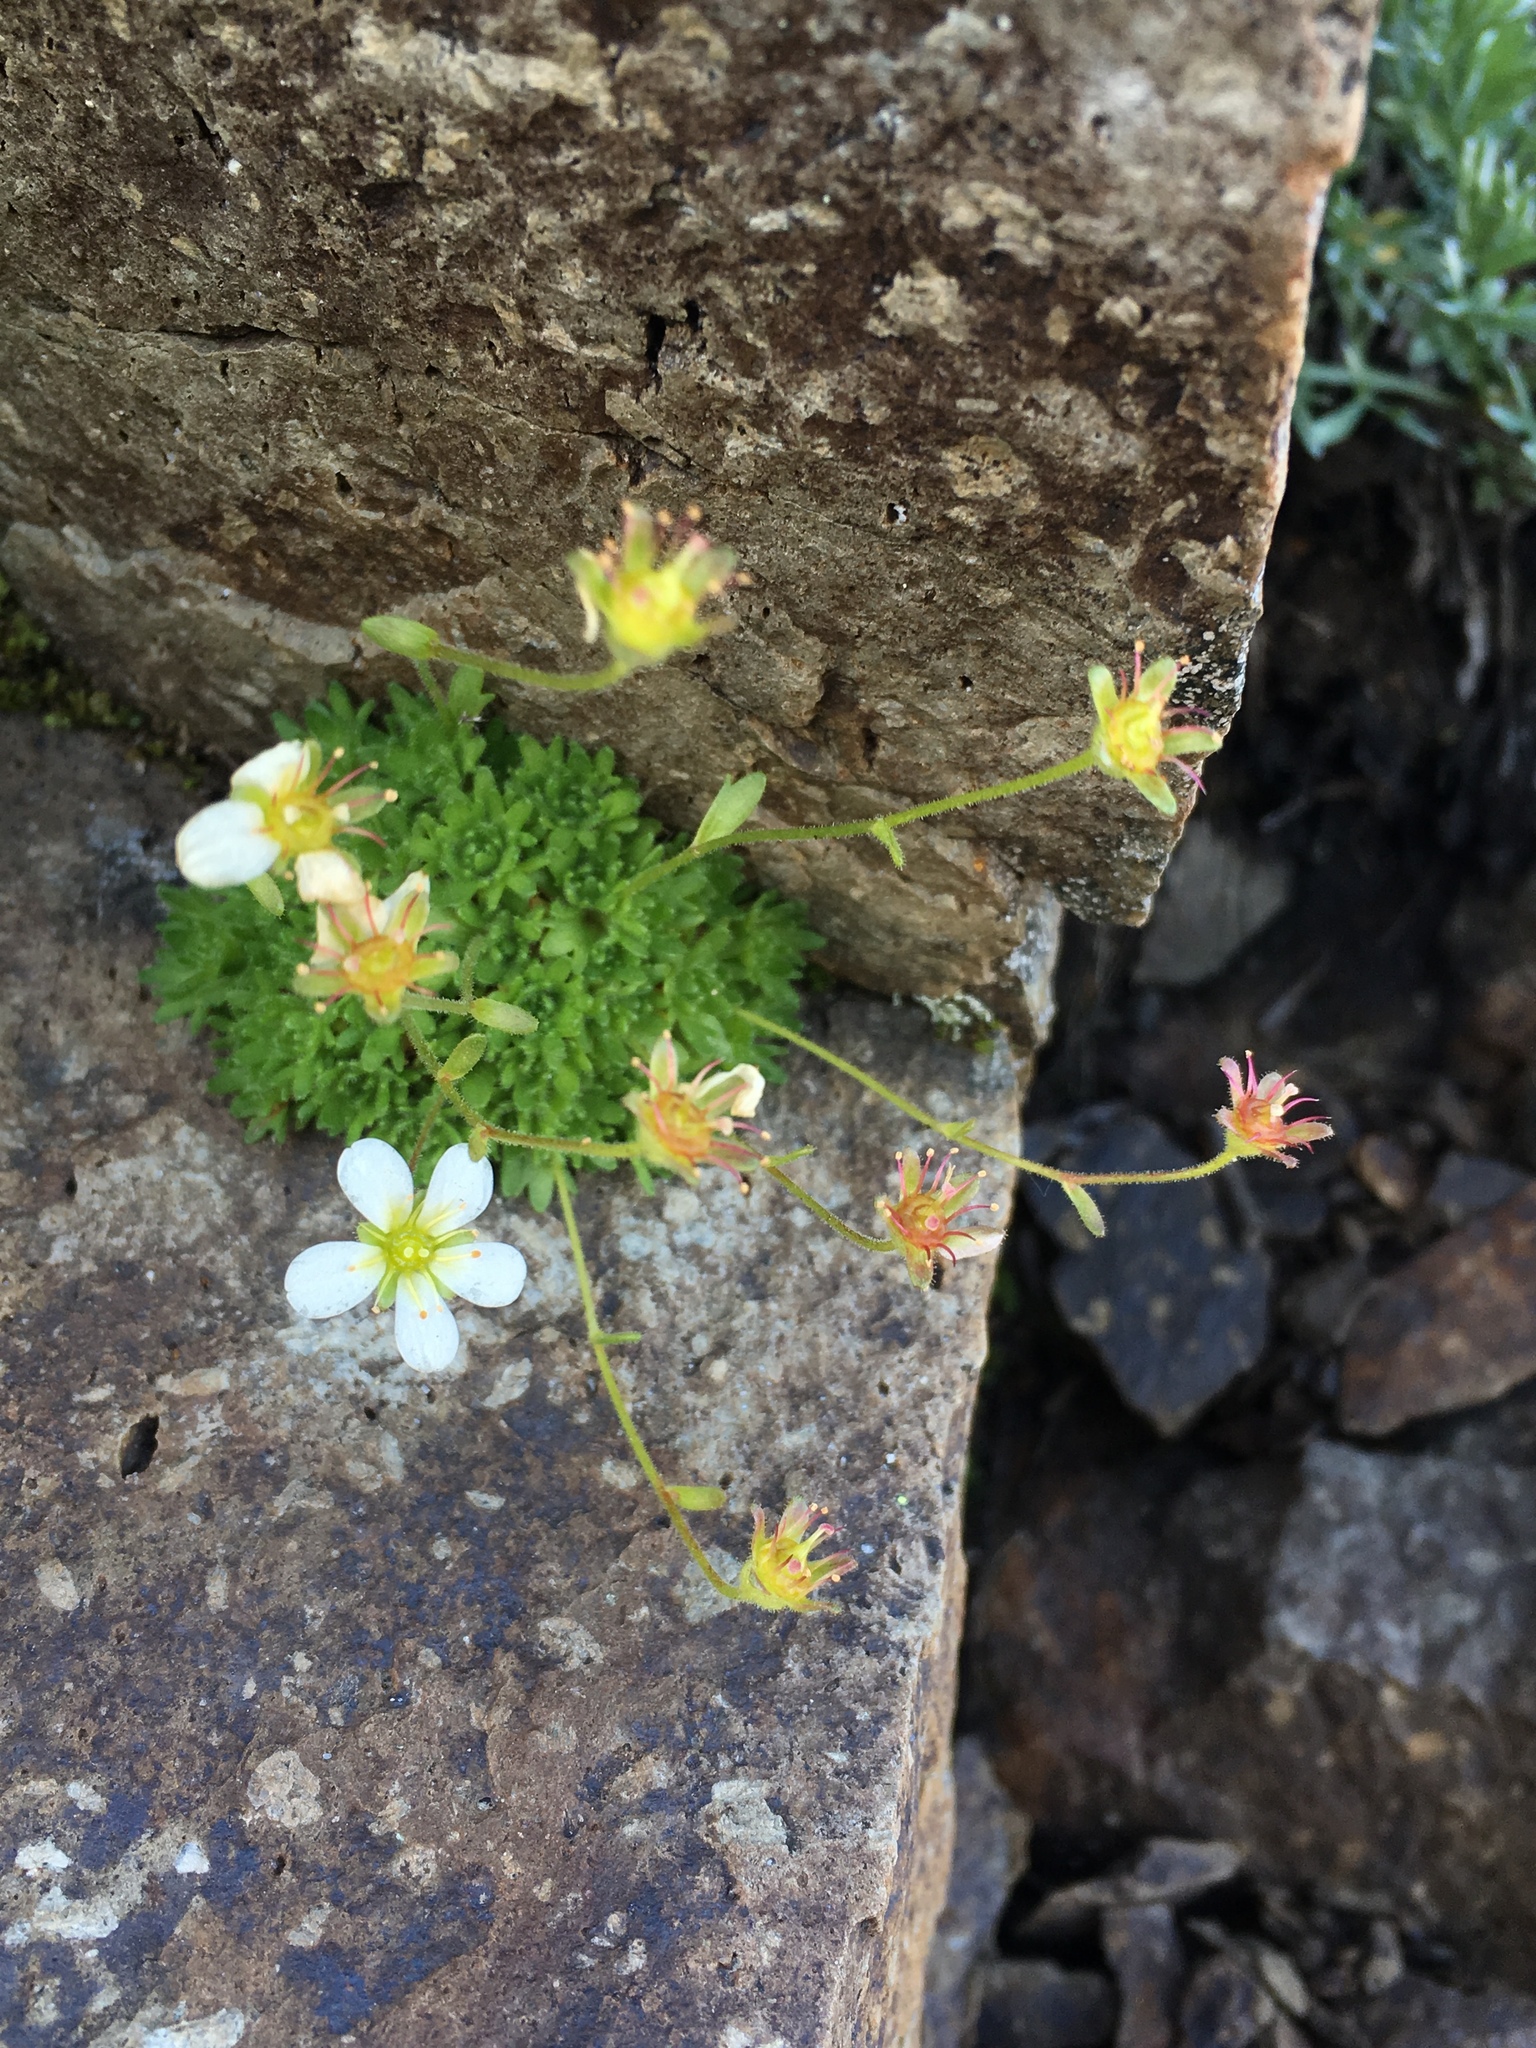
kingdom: Plantae
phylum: Tracheophyta
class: Magnoliopsida
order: Saxifragales
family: Saxifragaceae
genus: Saxifraga
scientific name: Saxifraga cespitosa
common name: Tufted saxifrage
